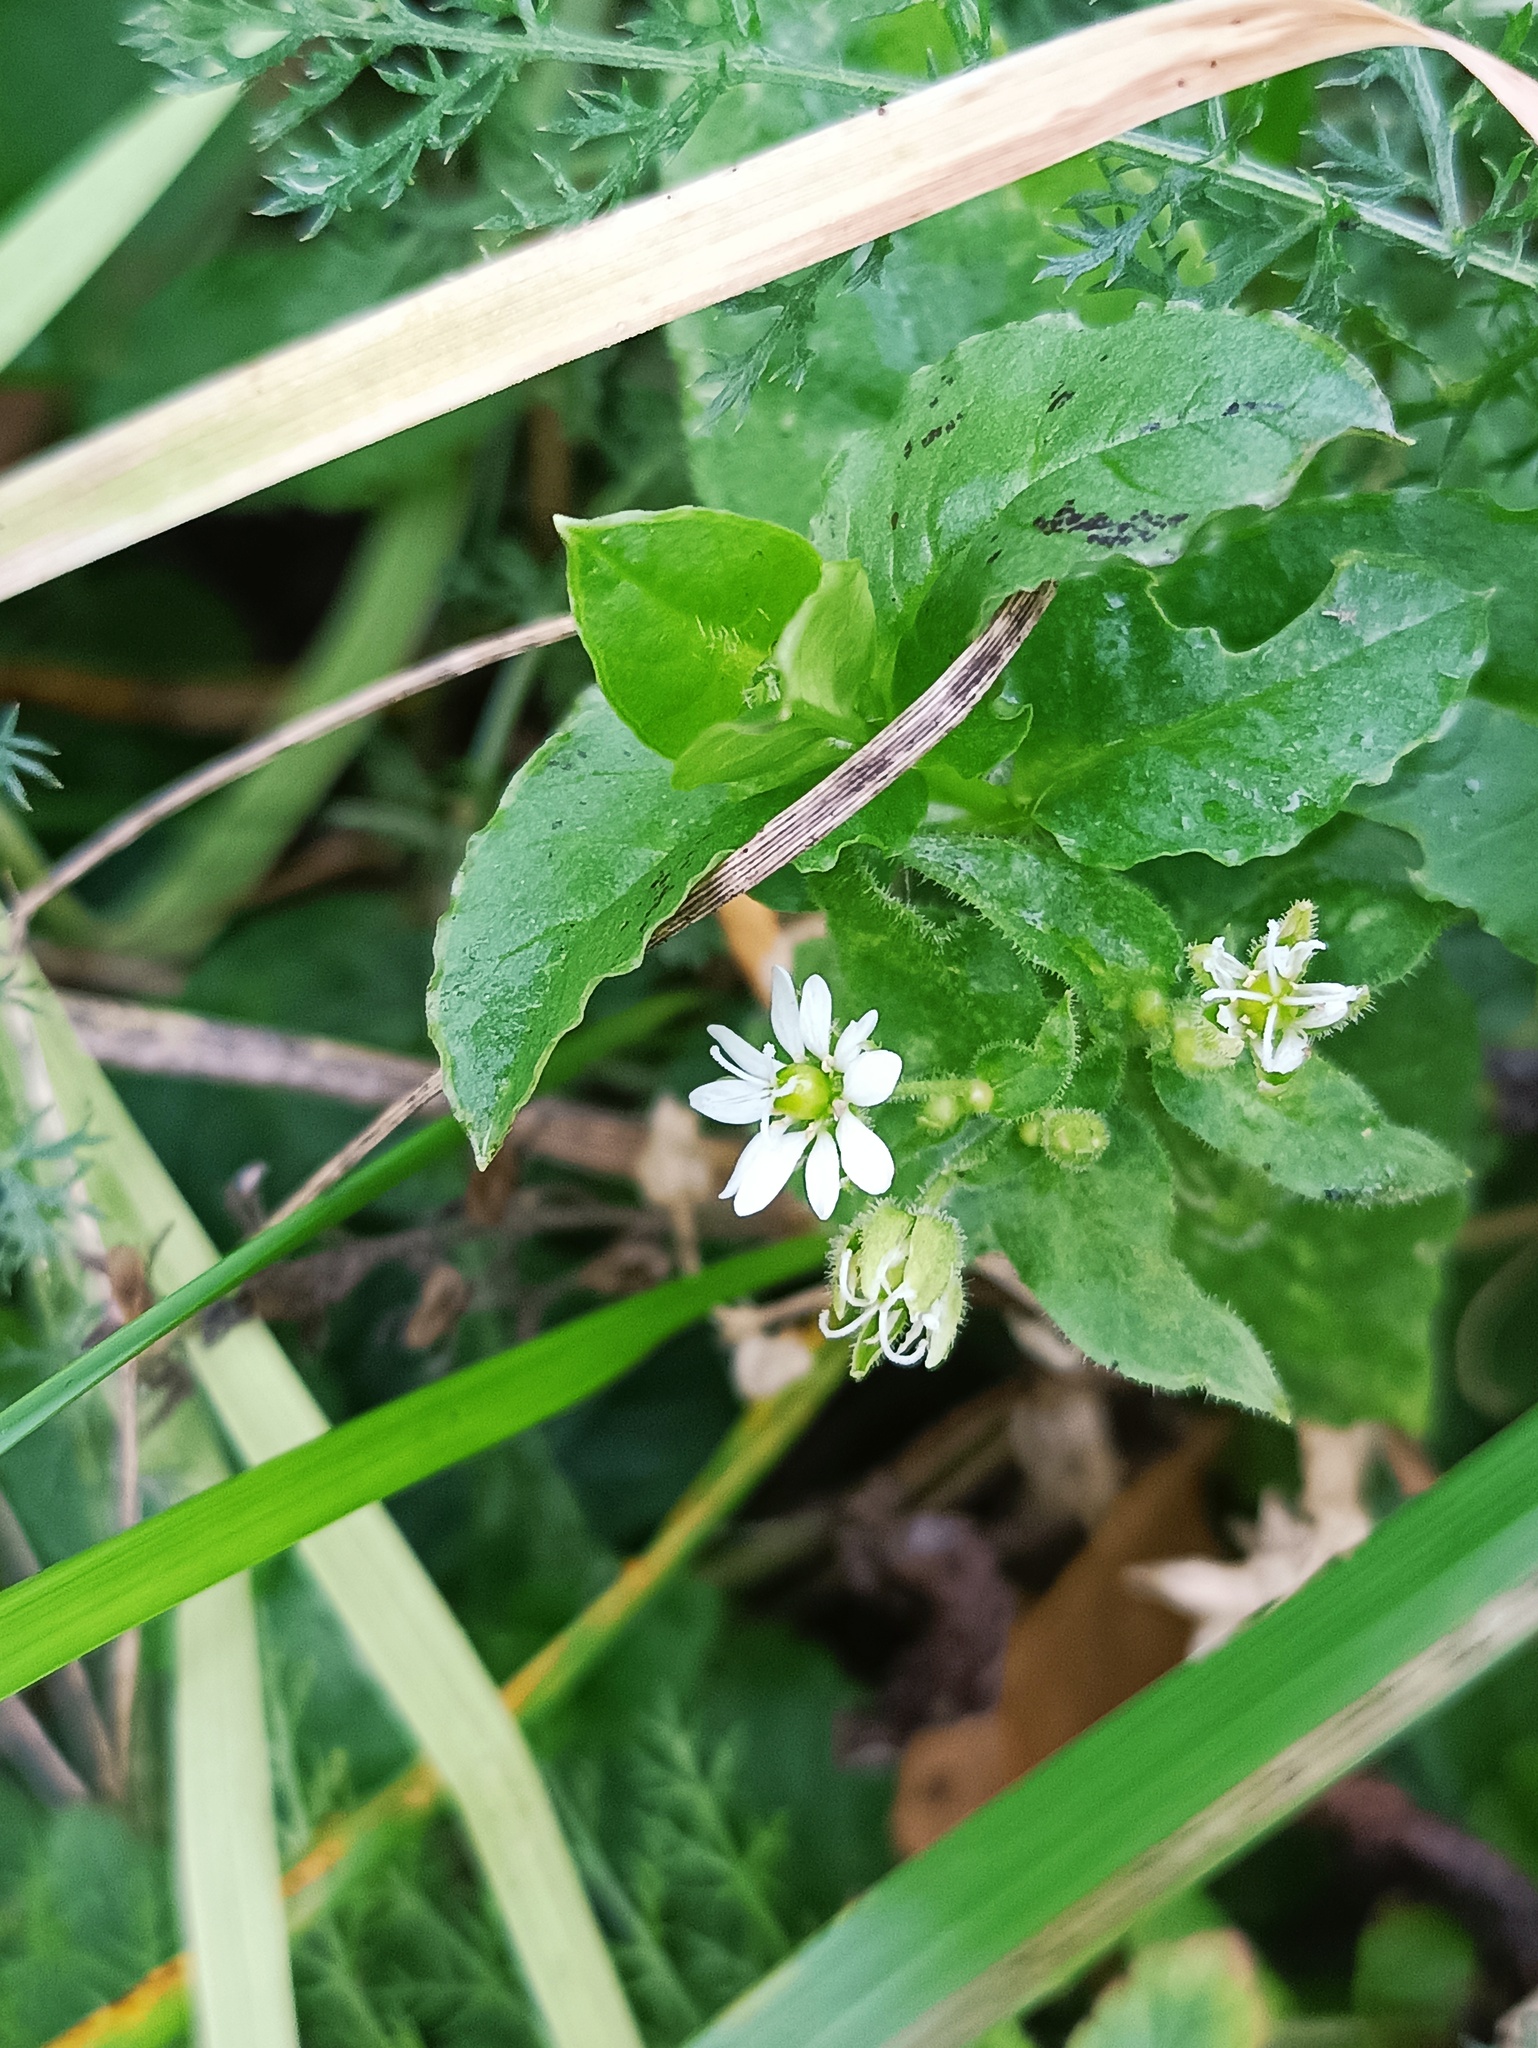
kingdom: Plantae
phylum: Tracheophyta
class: Magnoliopsida
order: Caryophyllales
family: Caryophyllaceae
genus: Stellaria
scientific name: Stellaria aquatica
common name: Water chickweed
